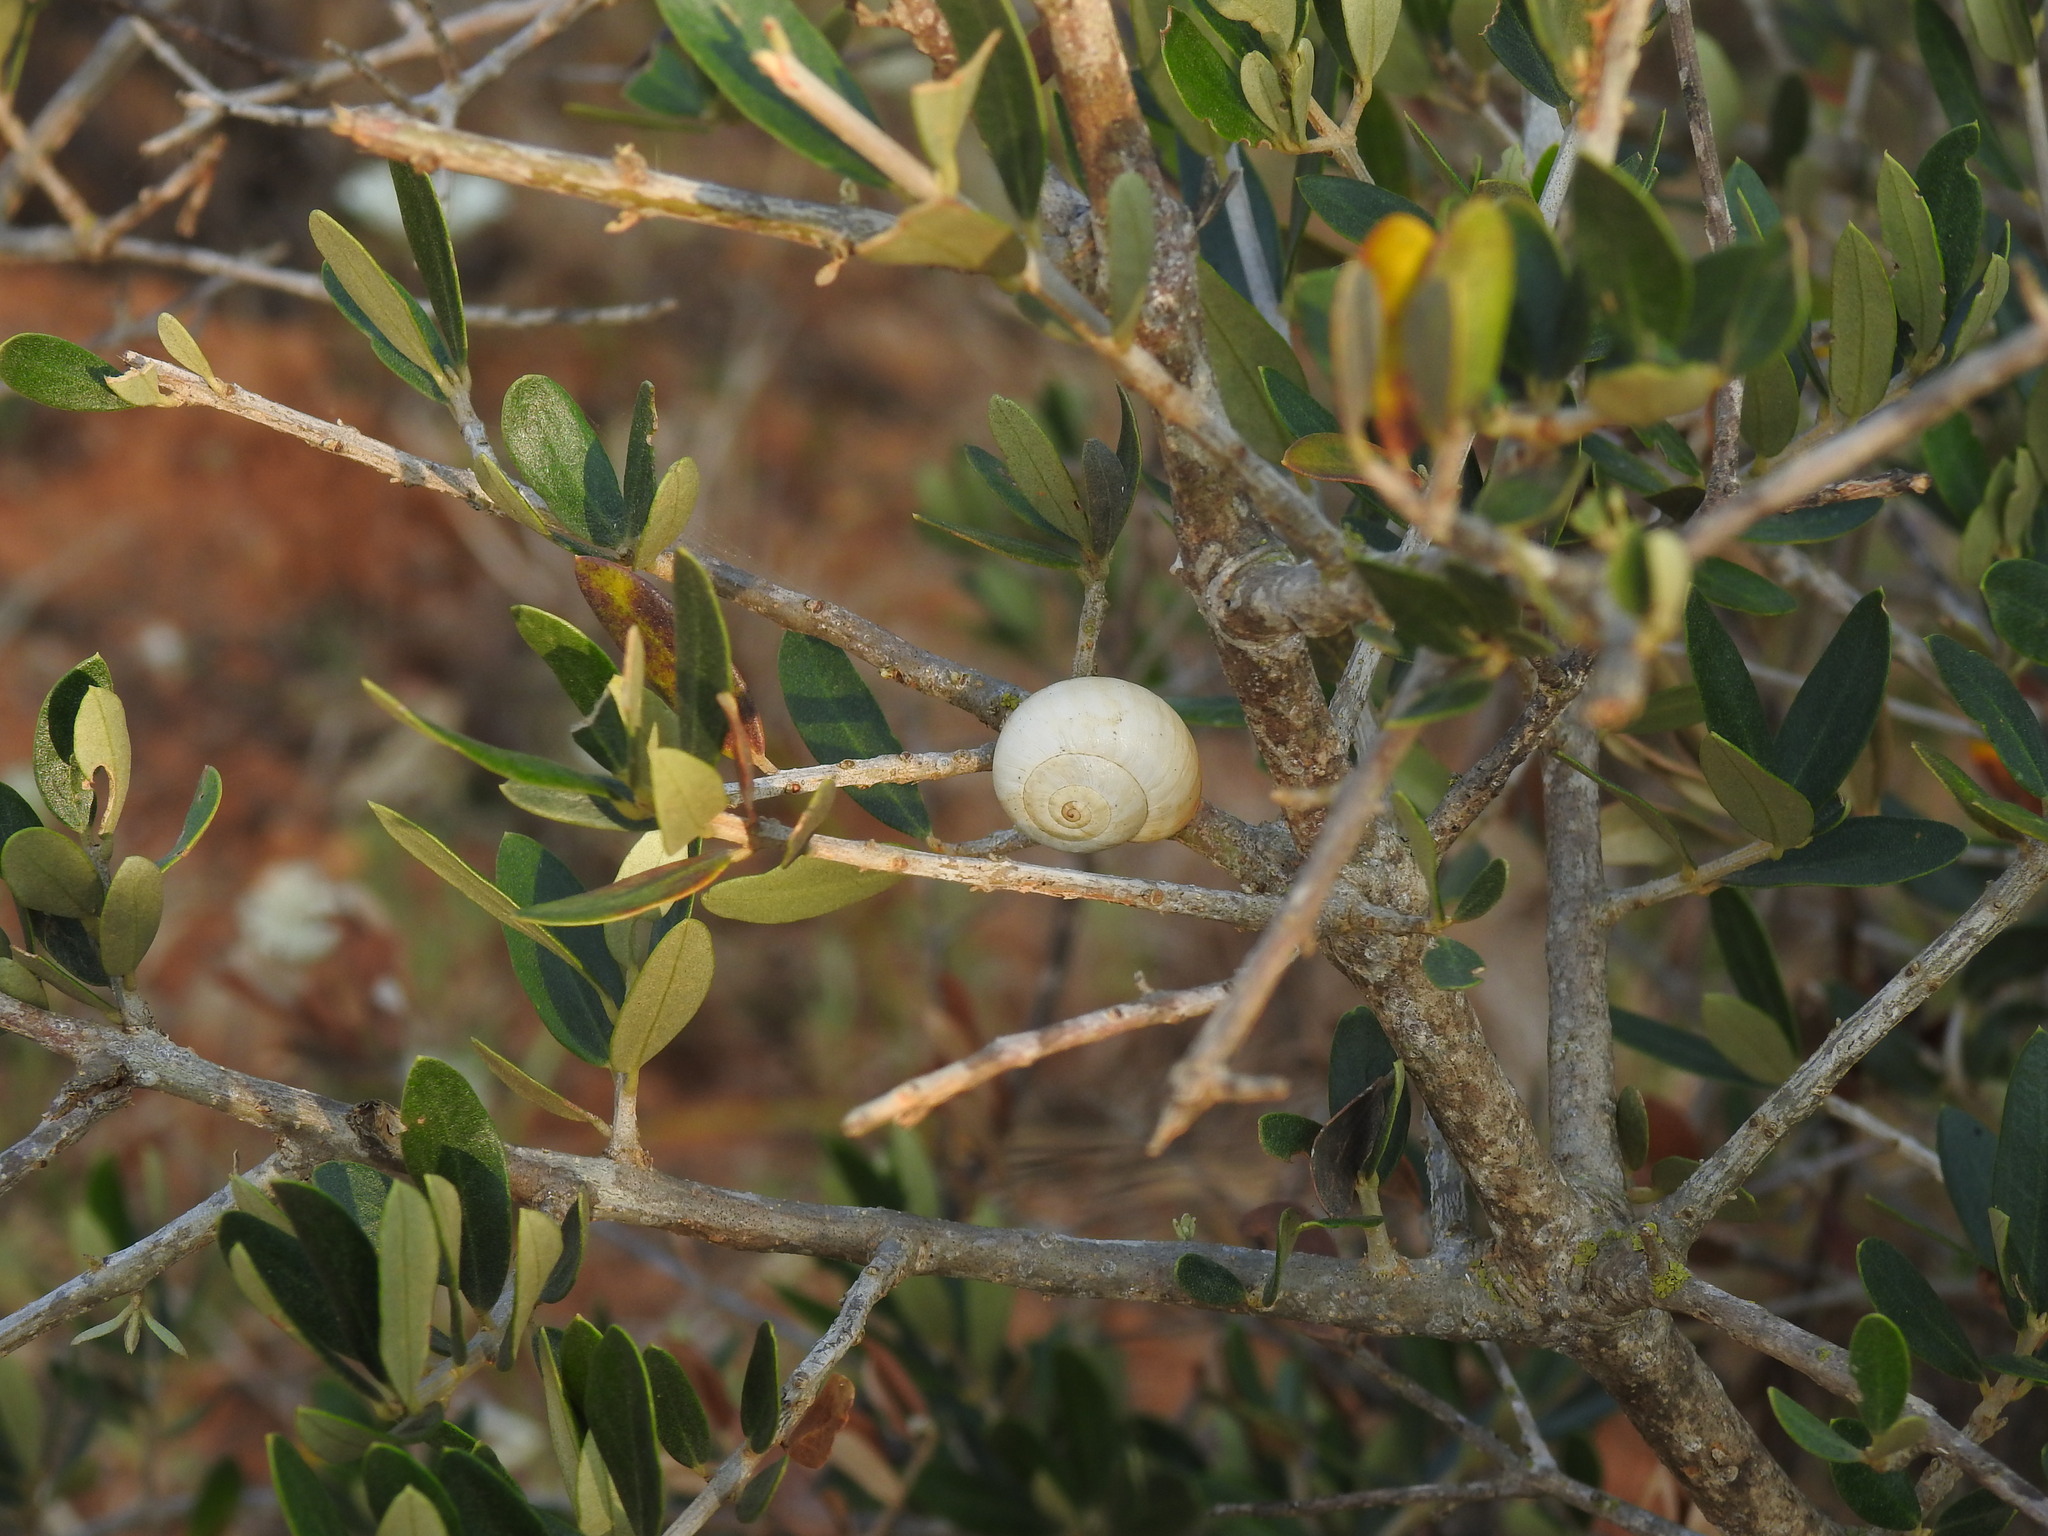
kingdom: Animalia
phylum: Mollusca
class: Gastropoda
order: Stylommatophora
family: Helicidae
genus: Theba
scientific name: Theba pisana
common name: White snail
